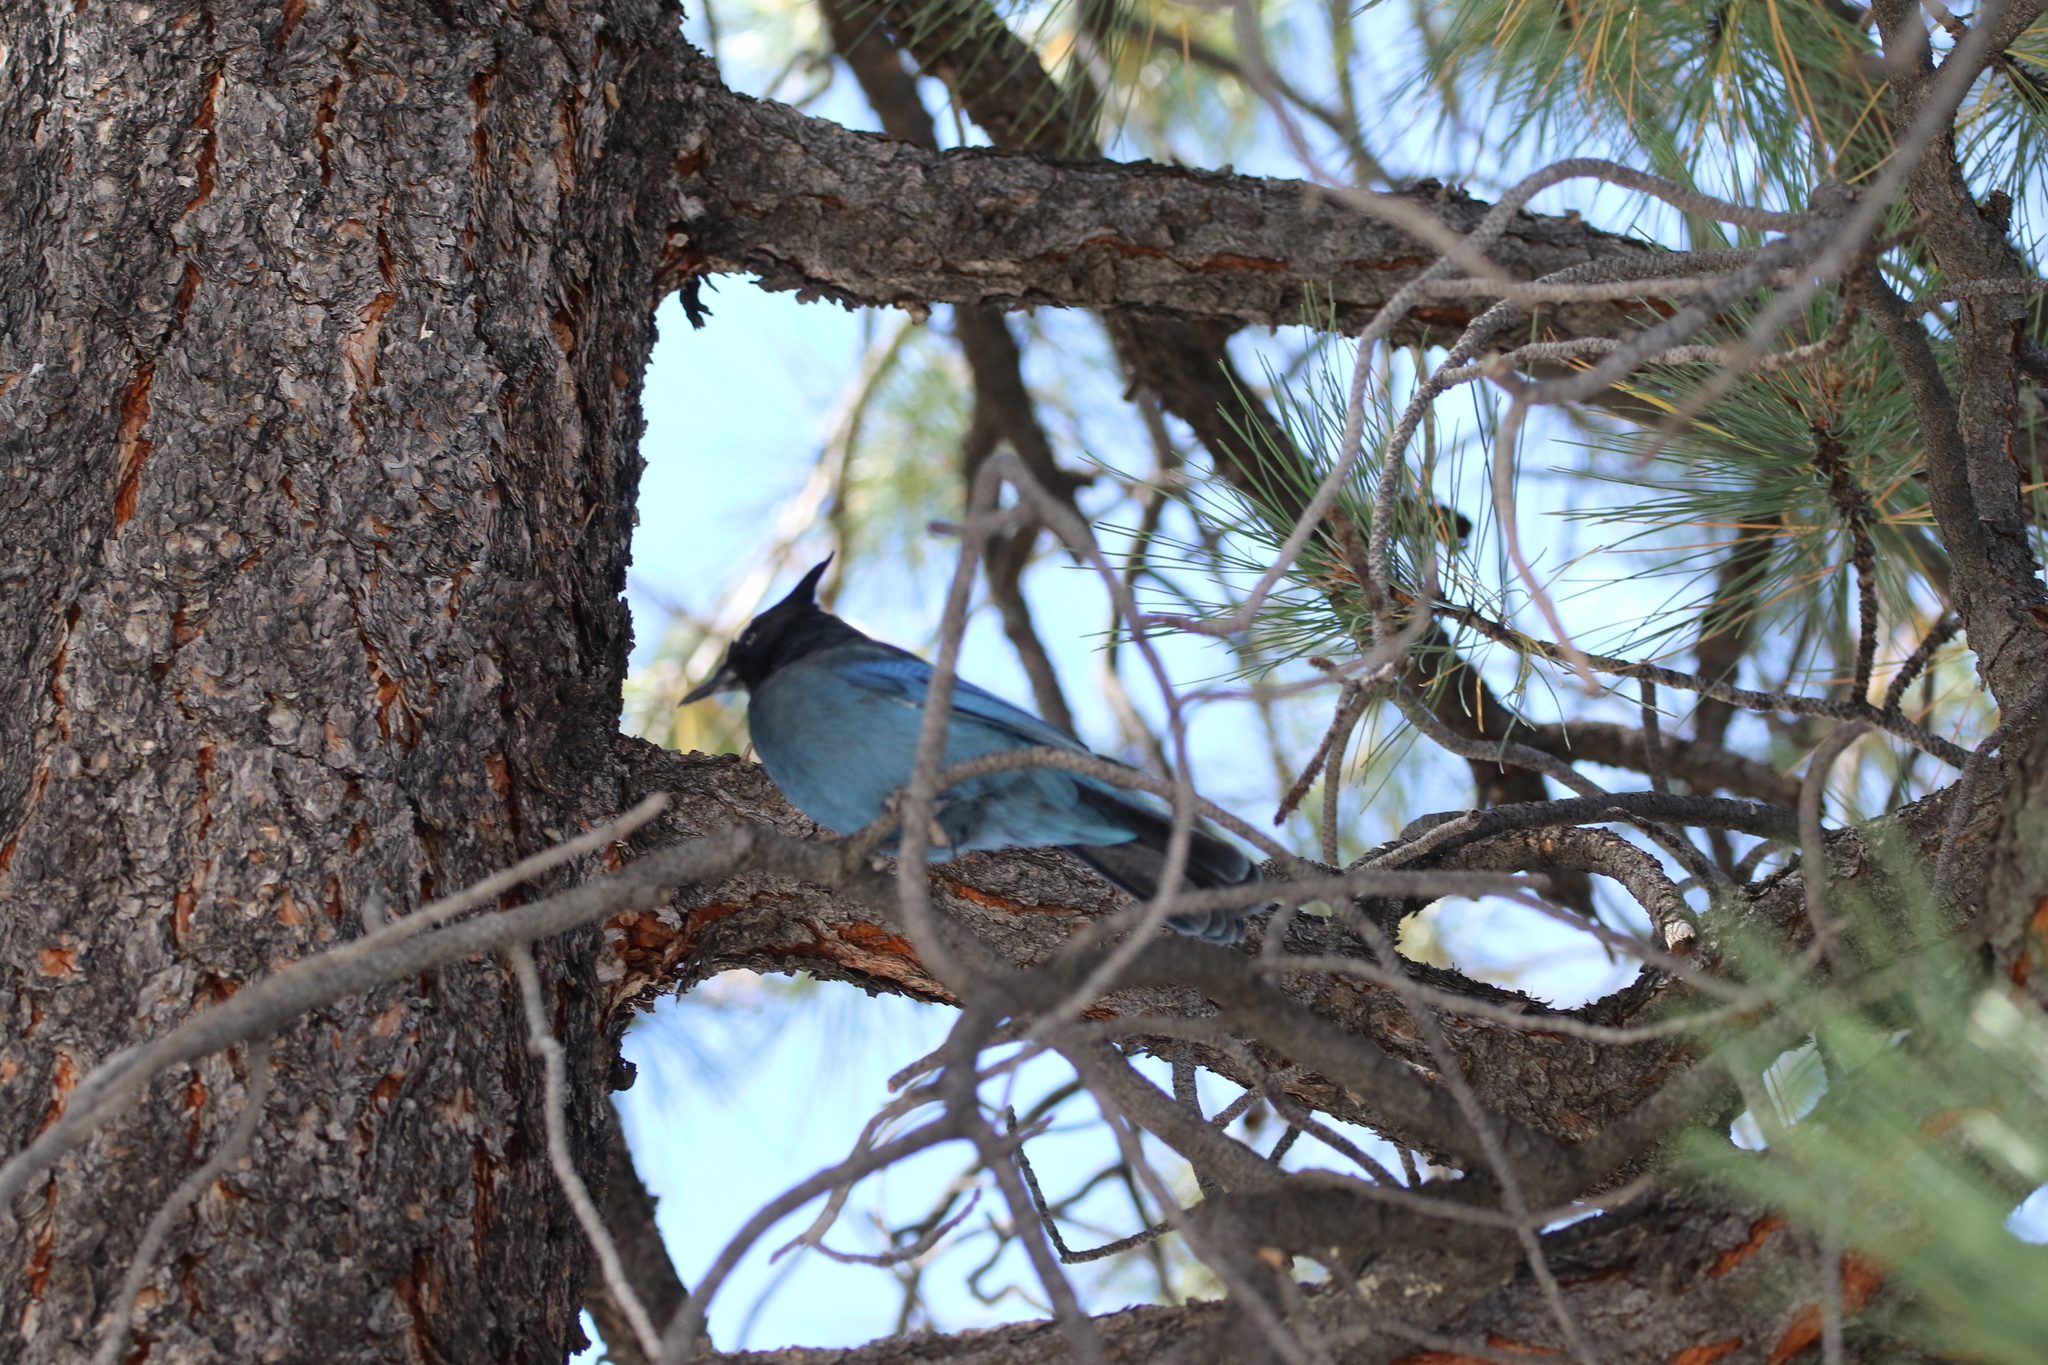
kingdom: Animalia
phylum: Chordata
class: Aves
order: Passeriformes
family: Corvidae
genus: Cyanocitta
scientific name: Cyanocitta stelleri
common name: Steller's jay
